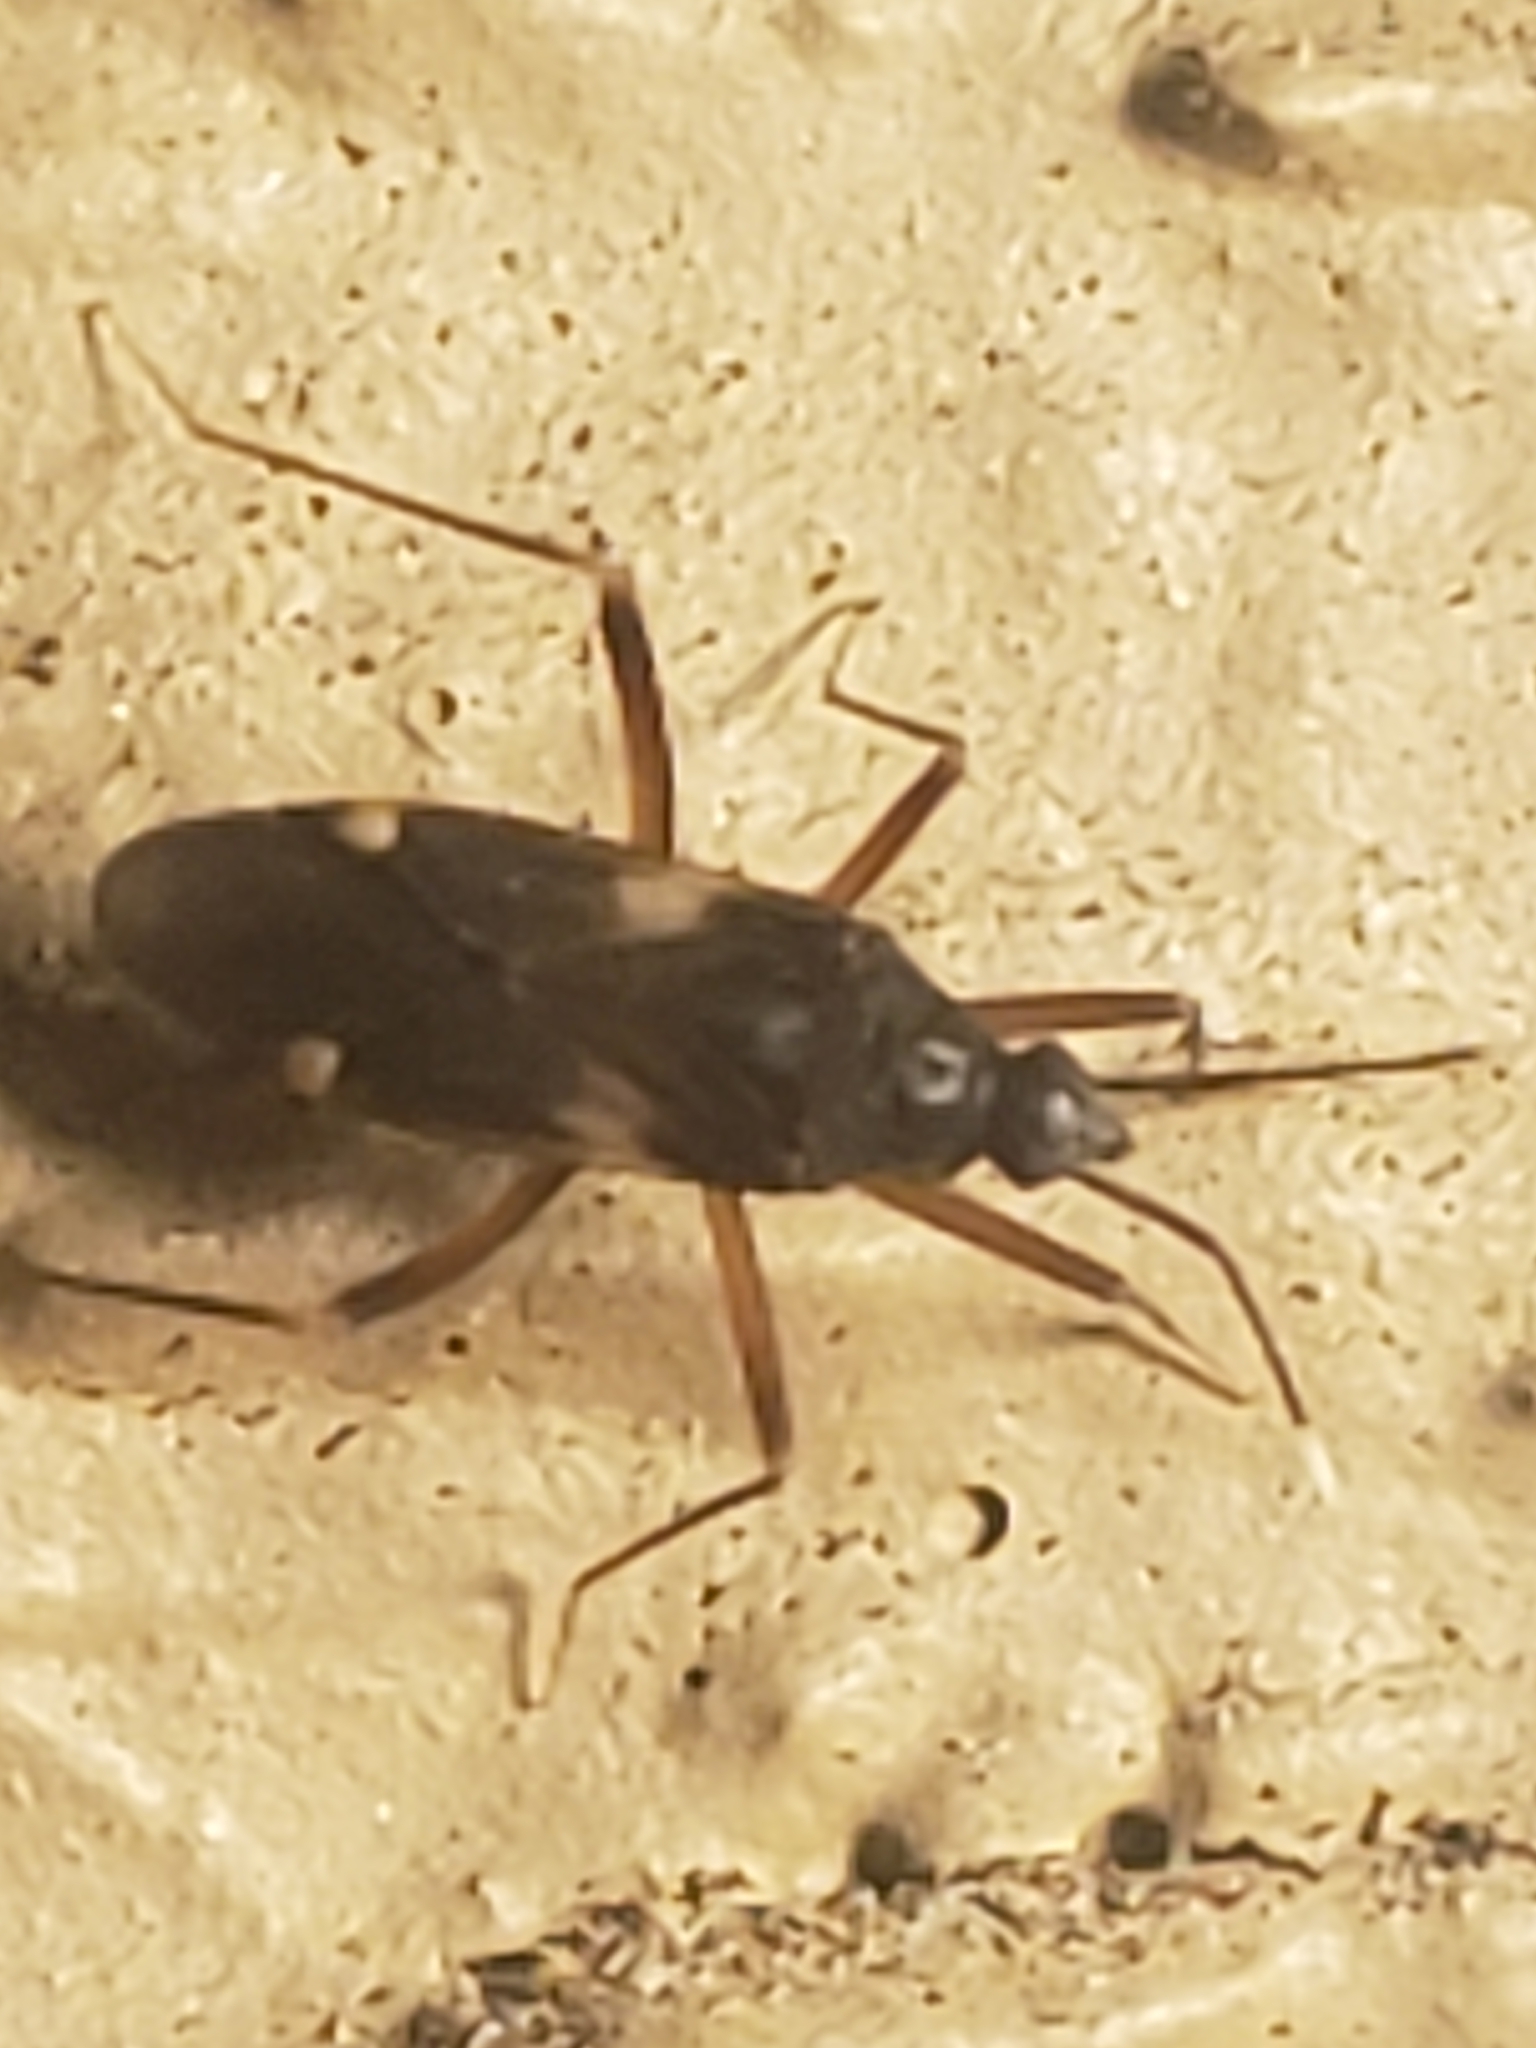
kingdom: Animalia
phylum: Arthropoda
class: Insecta
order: Hemiptera
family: Miridae
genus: Fulvius
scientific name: Fulvius imbecilis
